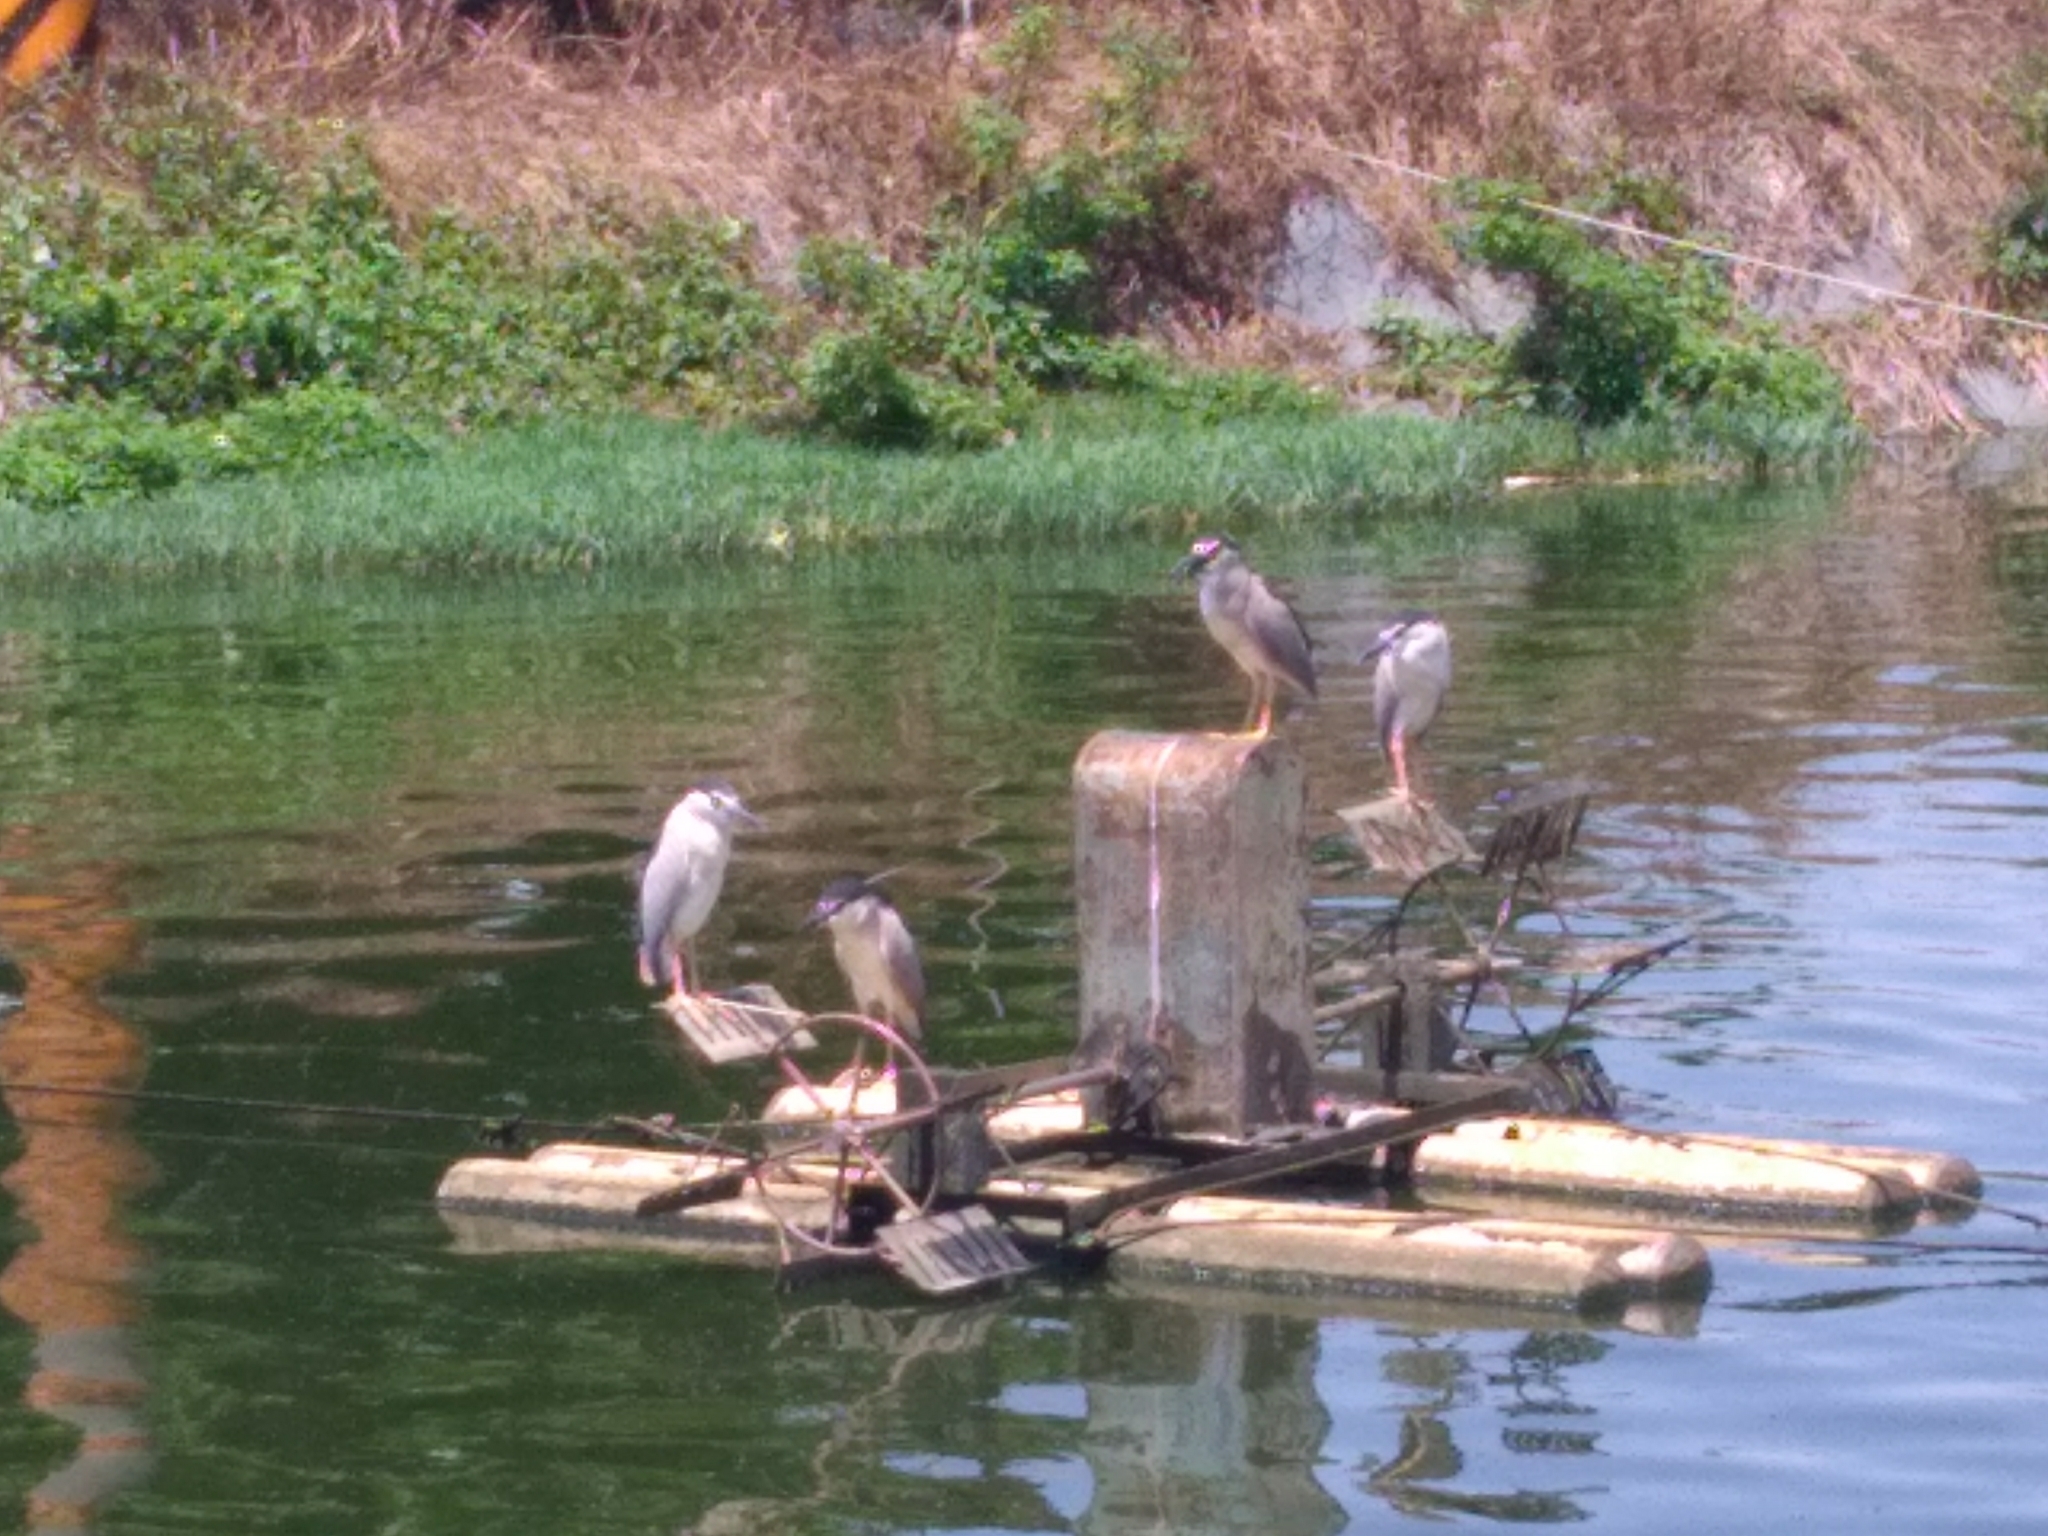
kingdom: Animalia
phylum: Chordata
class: Aves
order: Pelecaniformes
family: Ardeidae
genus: Nycticorax
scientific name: Nycticorax nycticorax
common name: Black-crowned night heron
